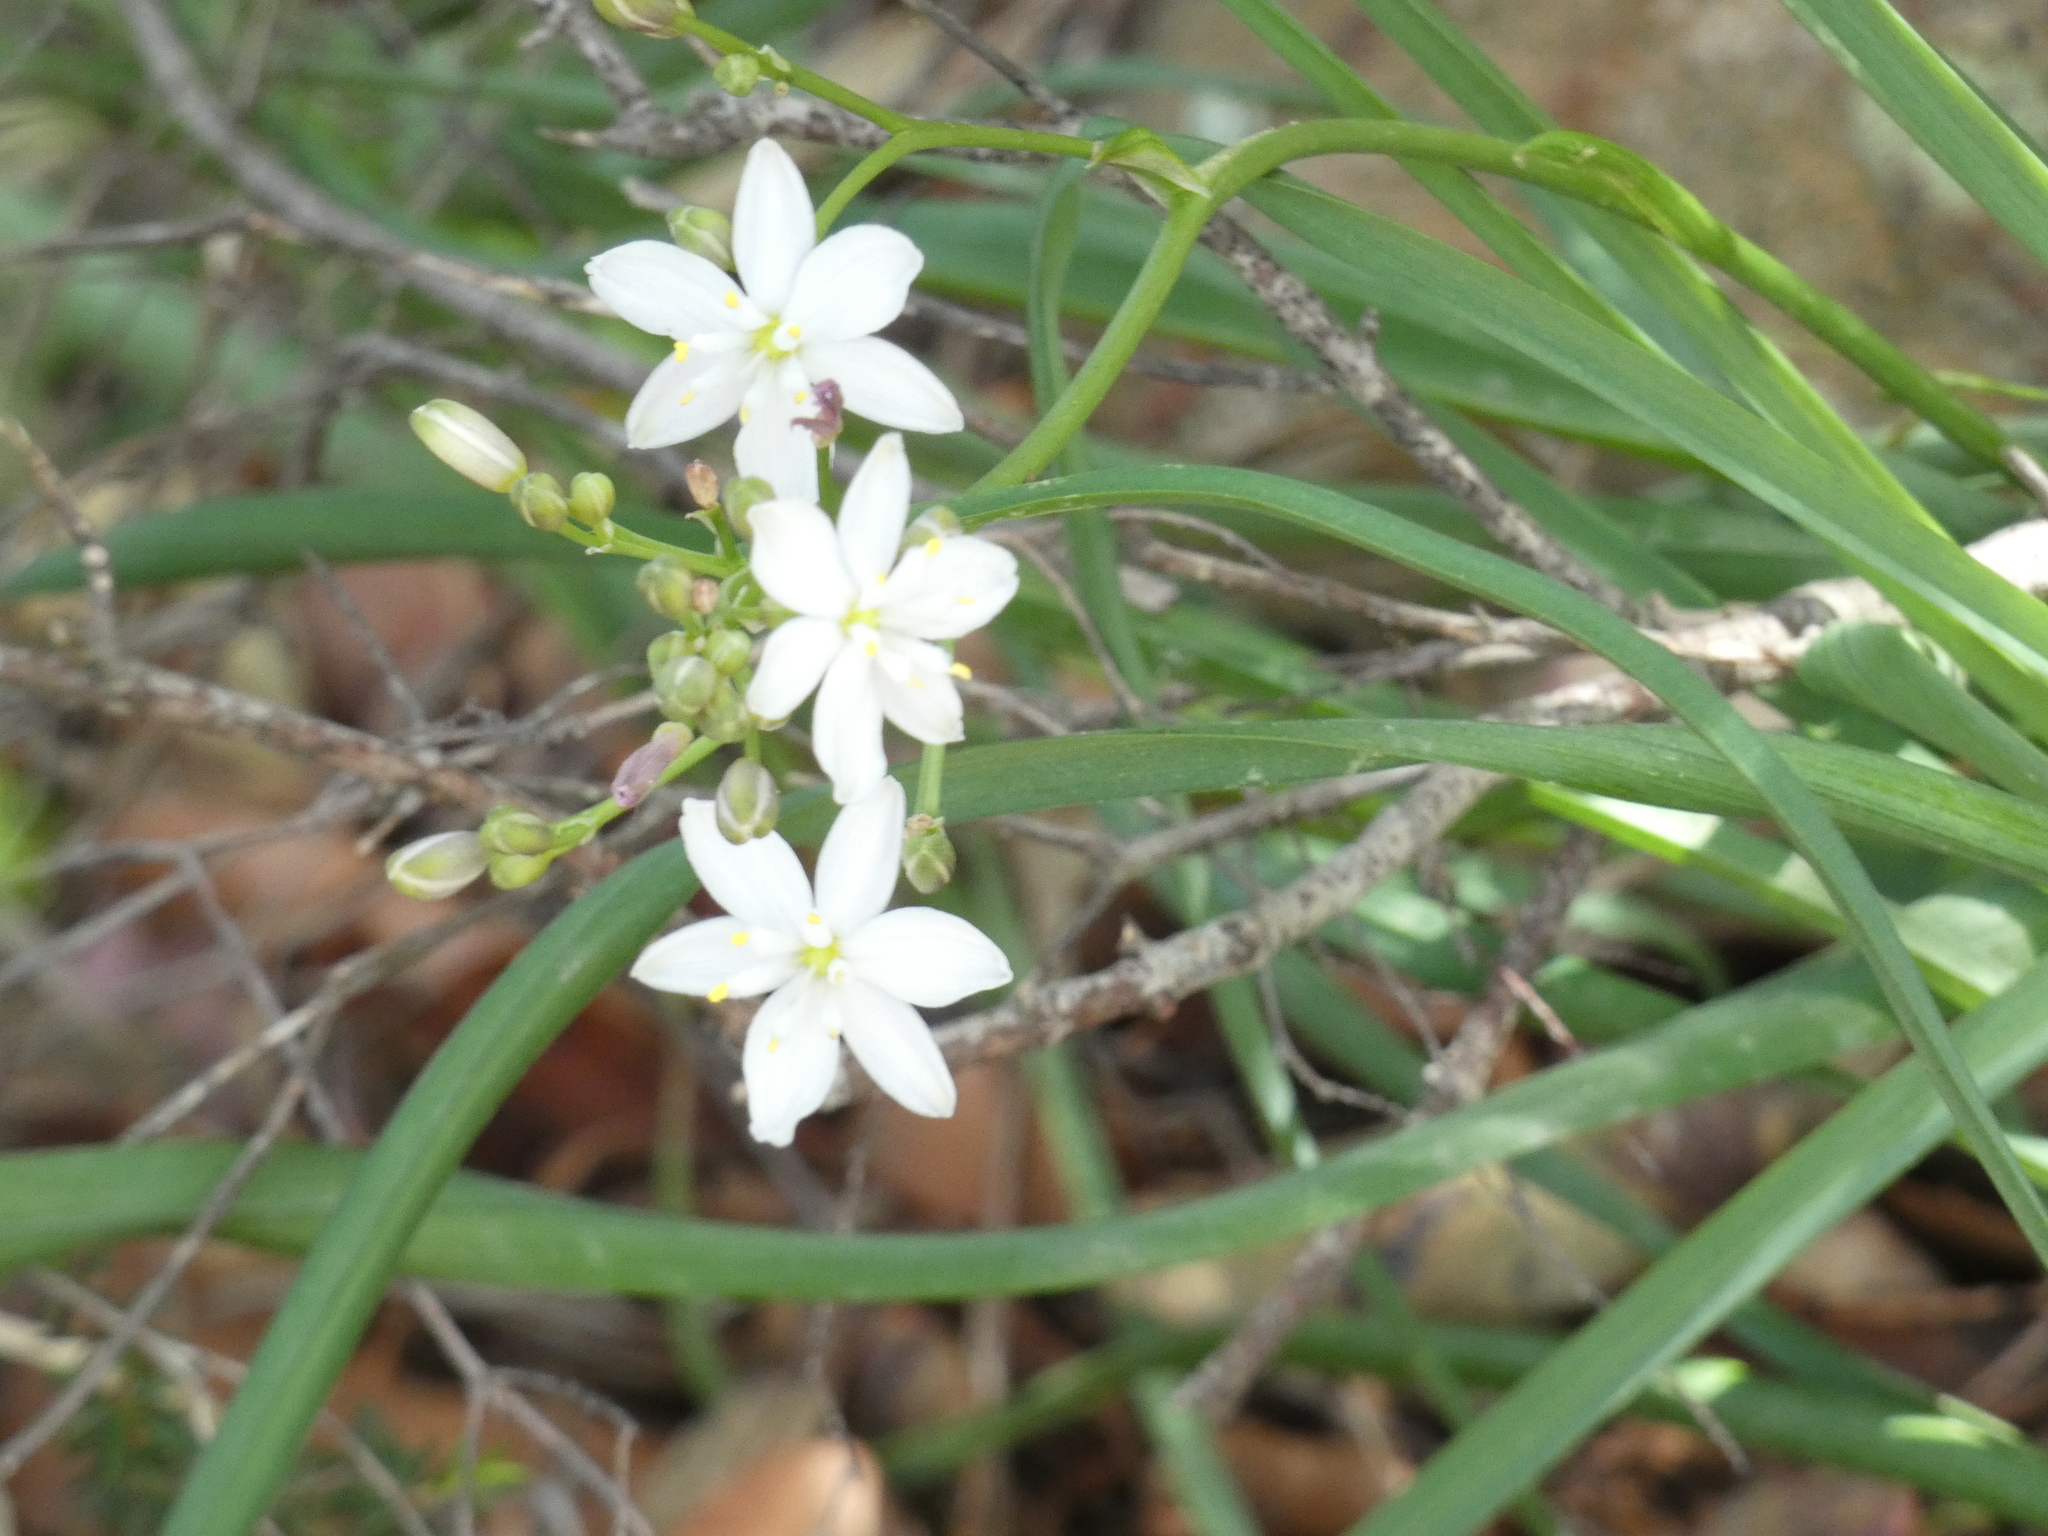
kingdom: Plantae
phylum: Tracheophyta
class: Liliopsida
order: Asparagales
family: Asphodelaceae
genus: Simethis
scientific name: Simethis mattiazzii
